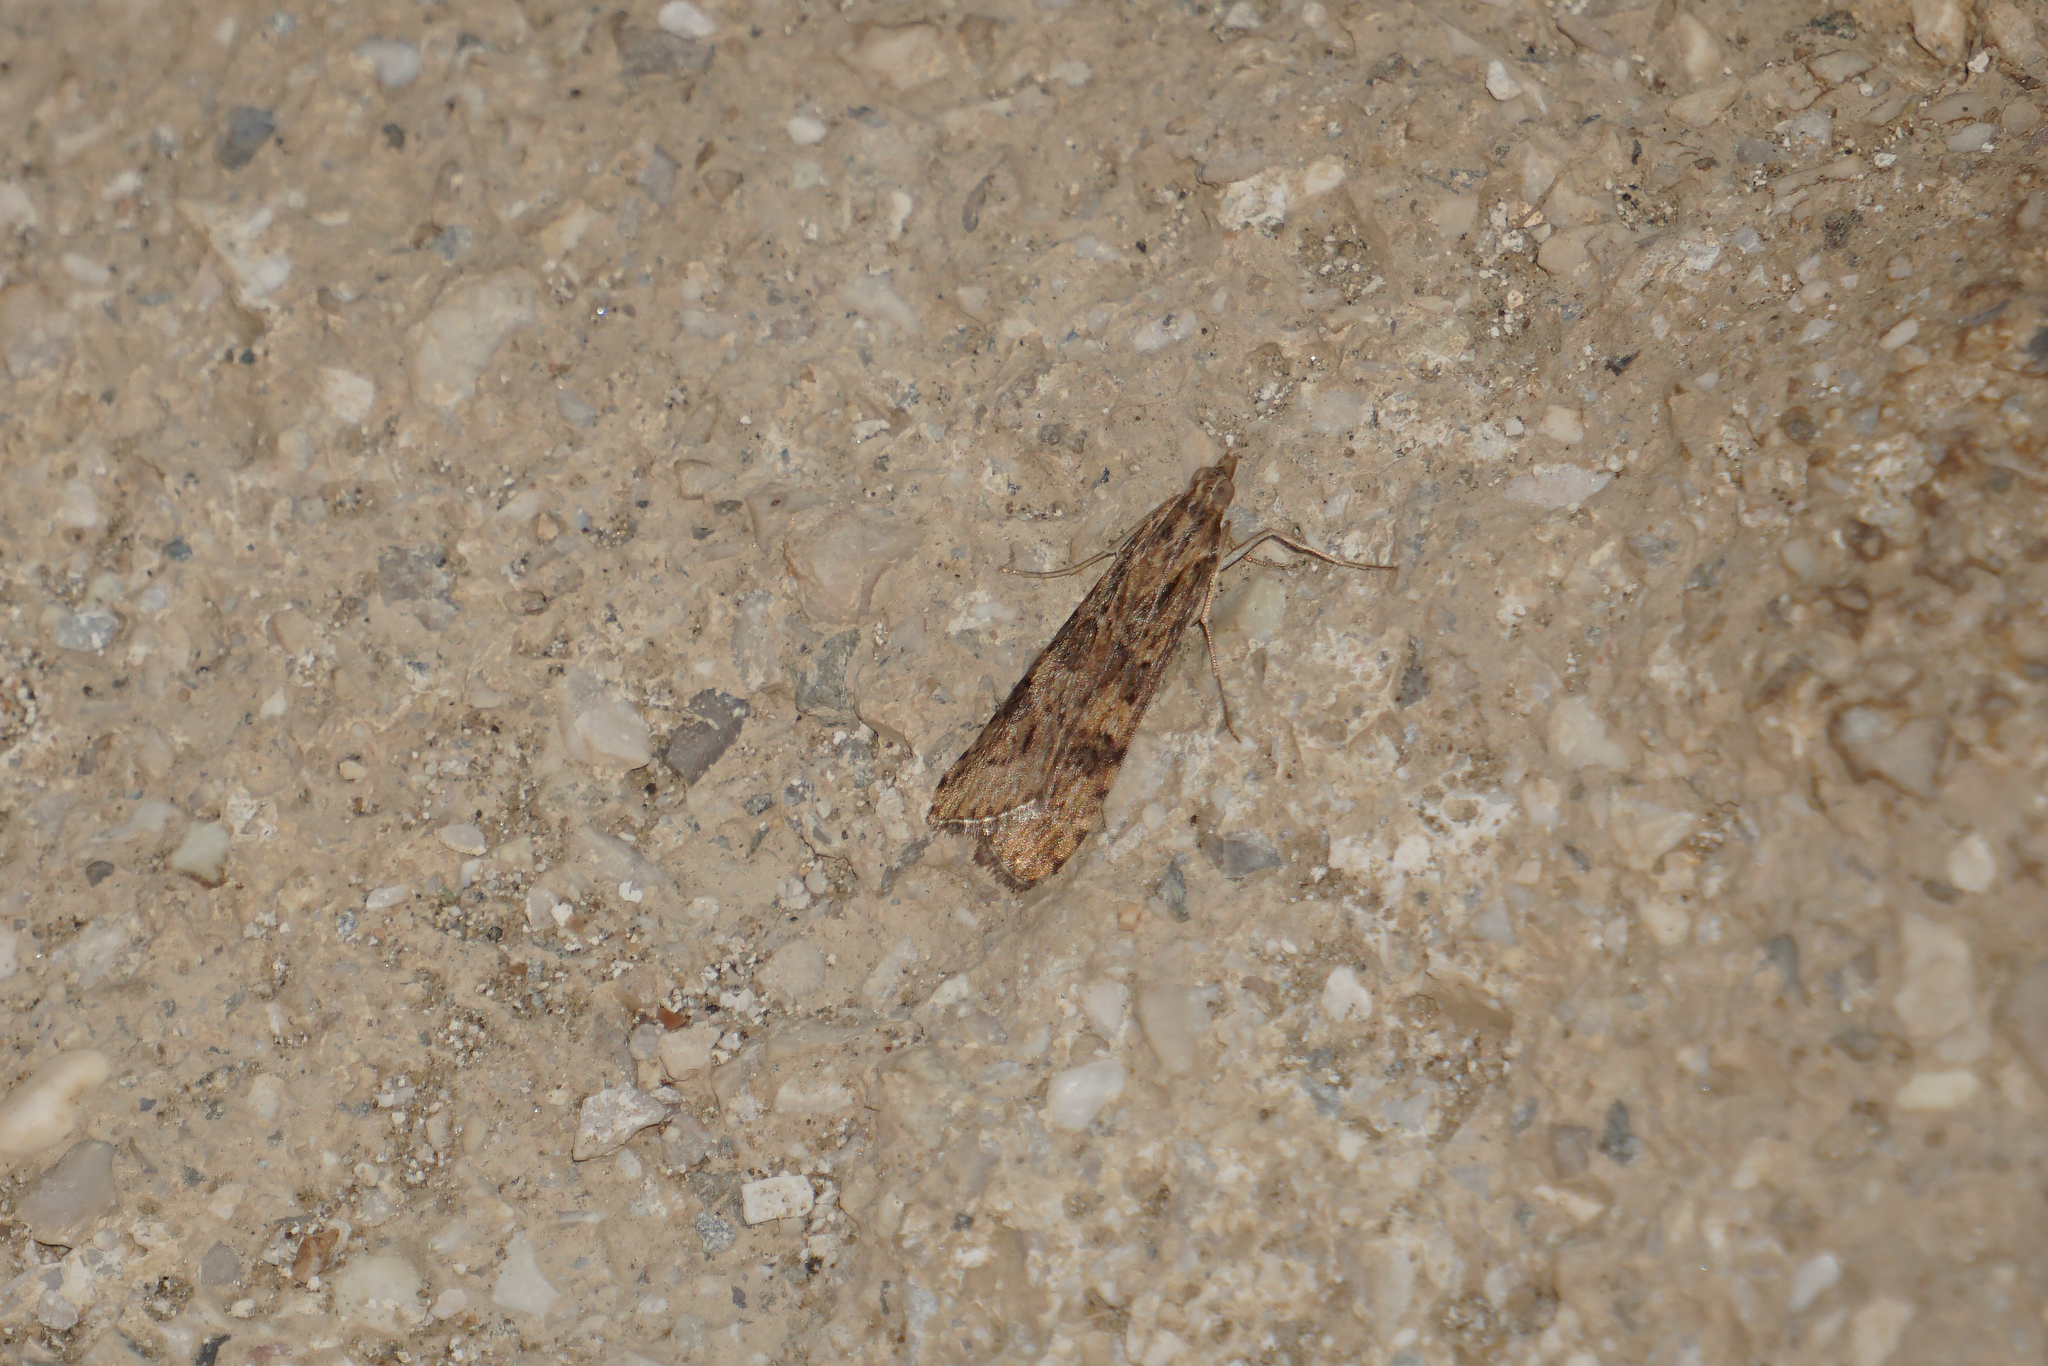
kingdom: Animalia
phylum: Arthropoda
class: Insecta
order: Lepidoptera
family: Crambidae
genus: Nomophila
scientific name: Nomophila noctuella
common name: Rush veneer
